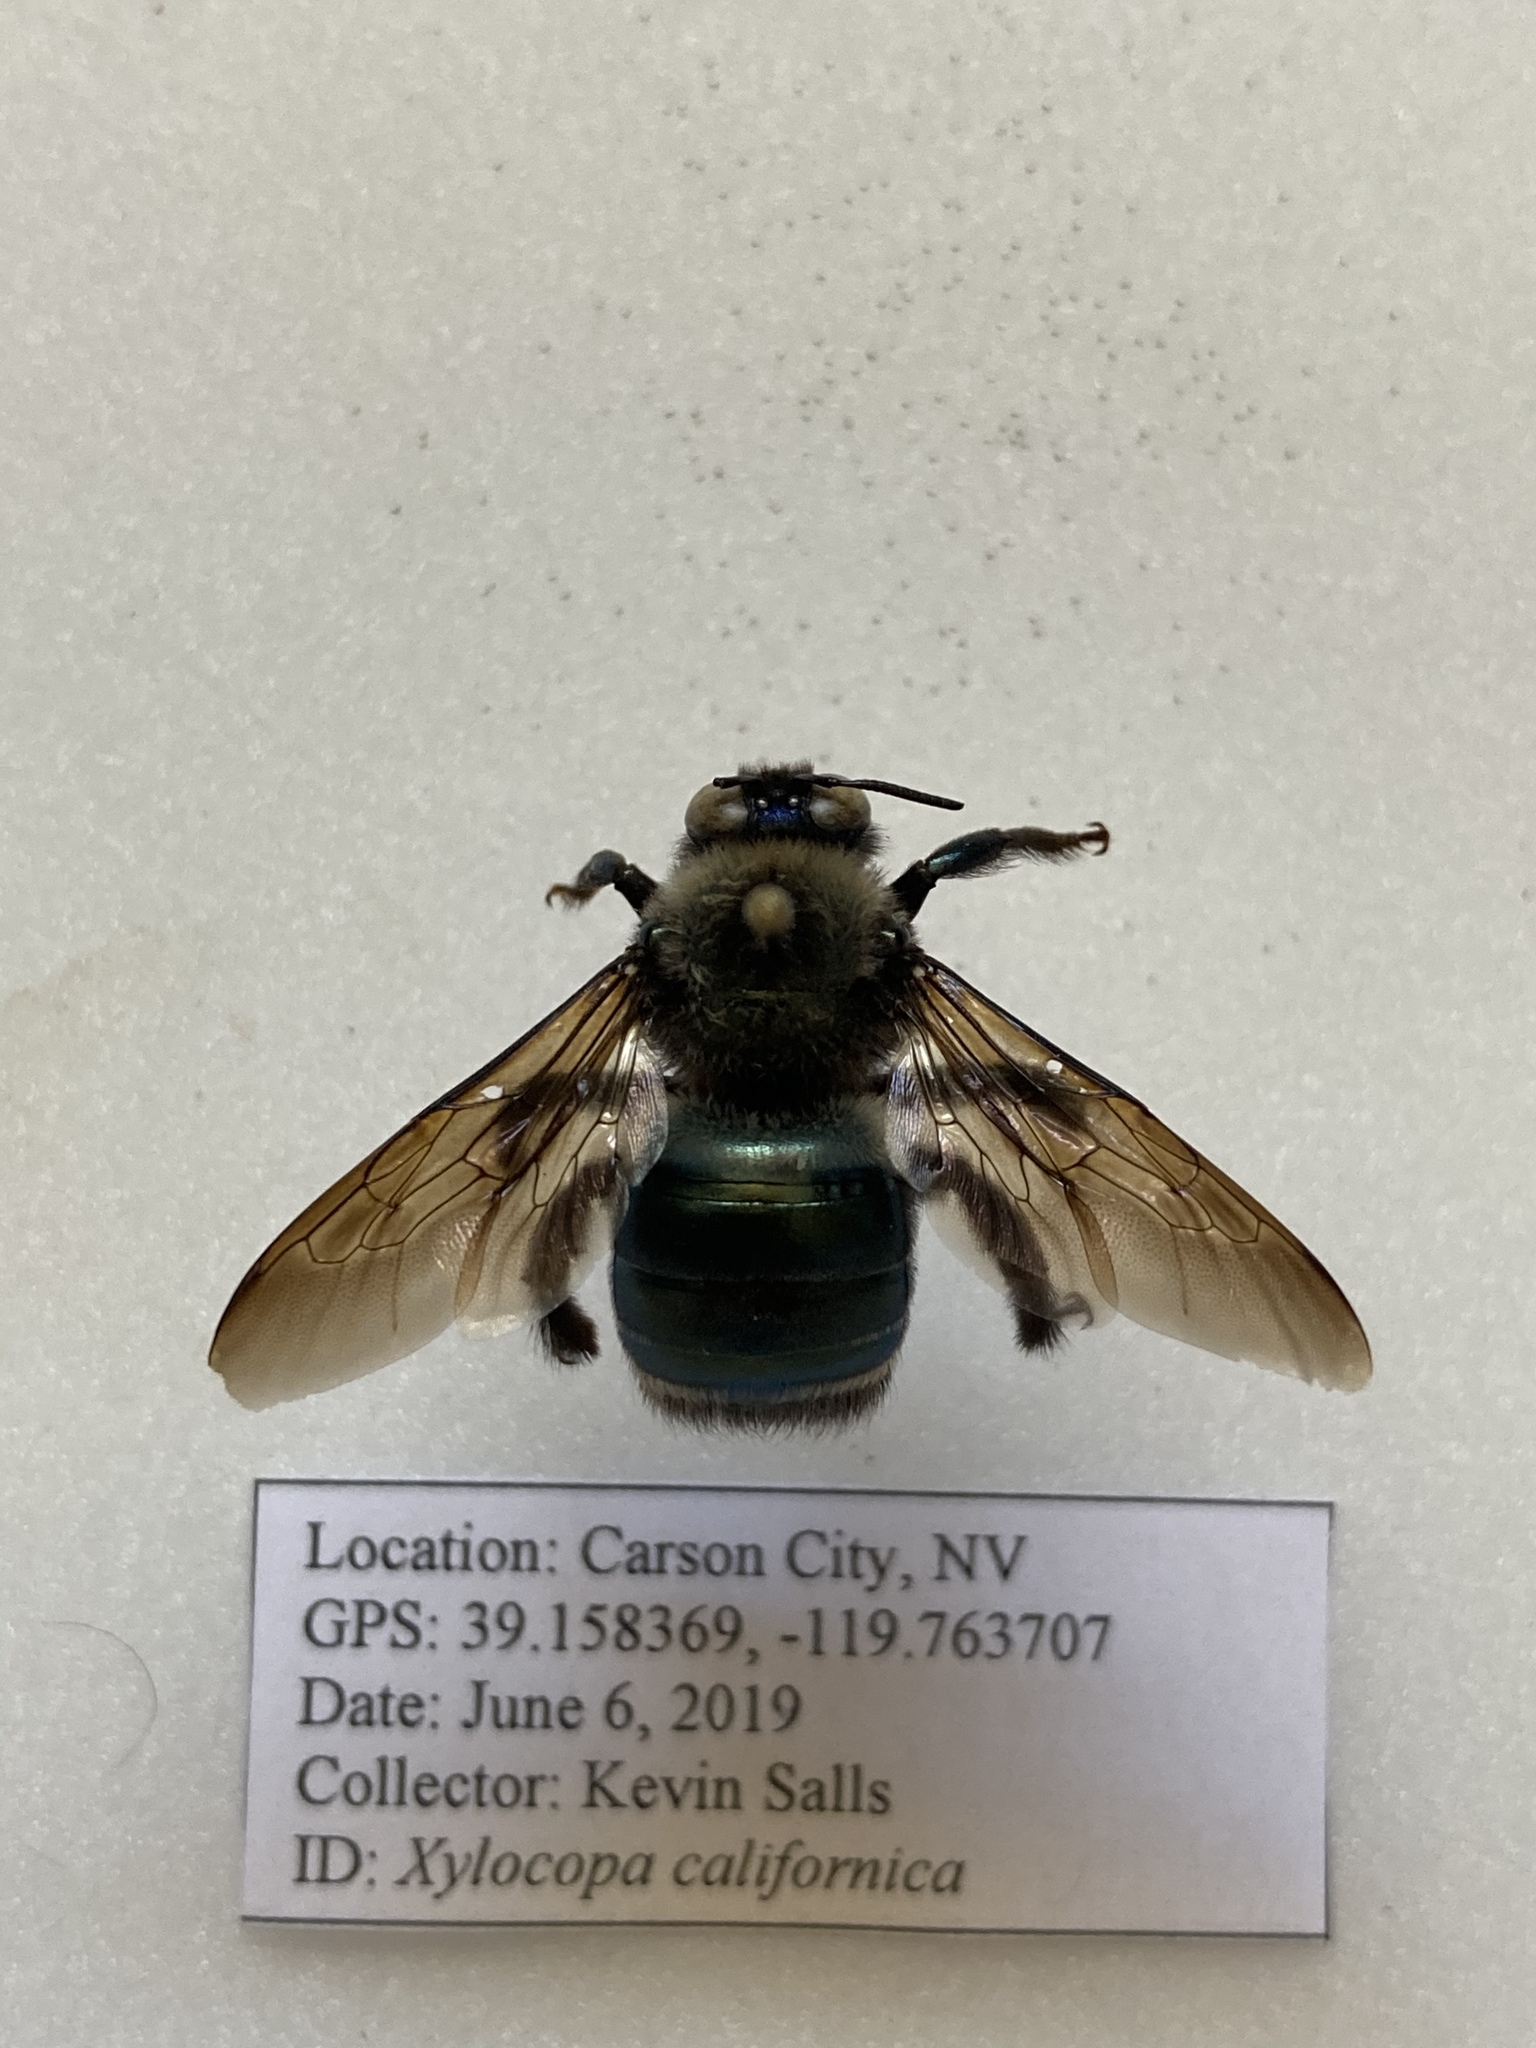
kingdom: Animalia
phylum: Arthropoda
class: Insecta
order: Hymenoptera
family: Apidae
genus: Xylocopa
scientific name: Xylocopa californica
